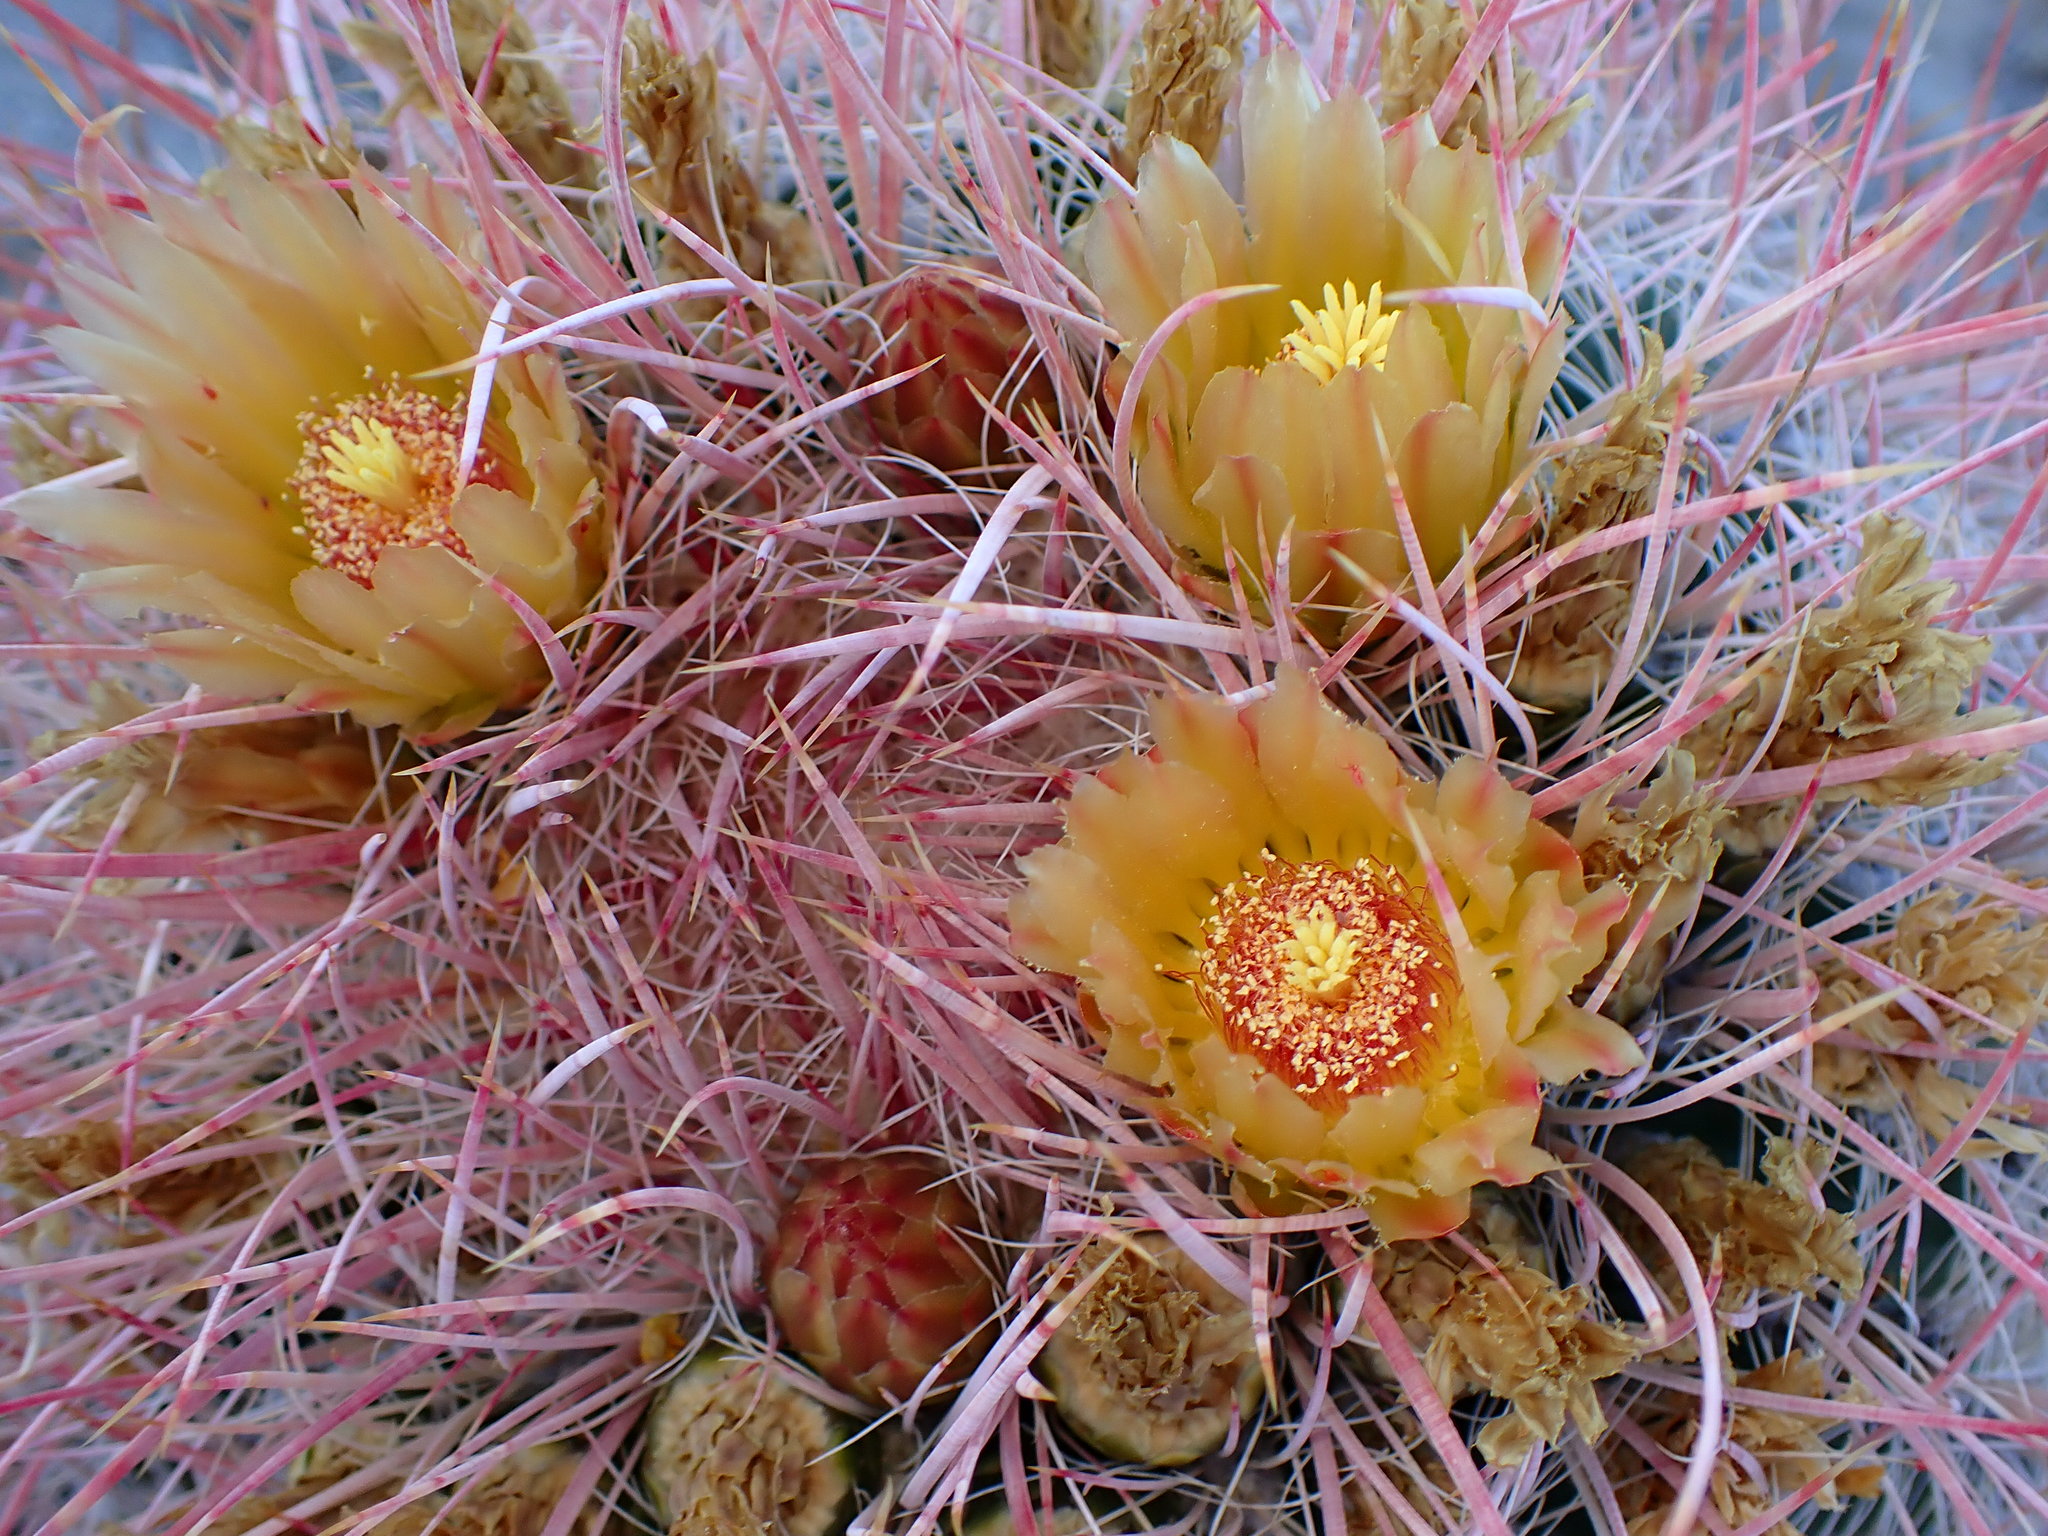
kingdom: Plantae
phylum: Tracheophyta
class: Magnoliopsida
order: Caryophyllales
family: Cactaceae
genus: Ferocactus
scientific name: Ferocactus cylindraceus
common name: California barrel cactus
